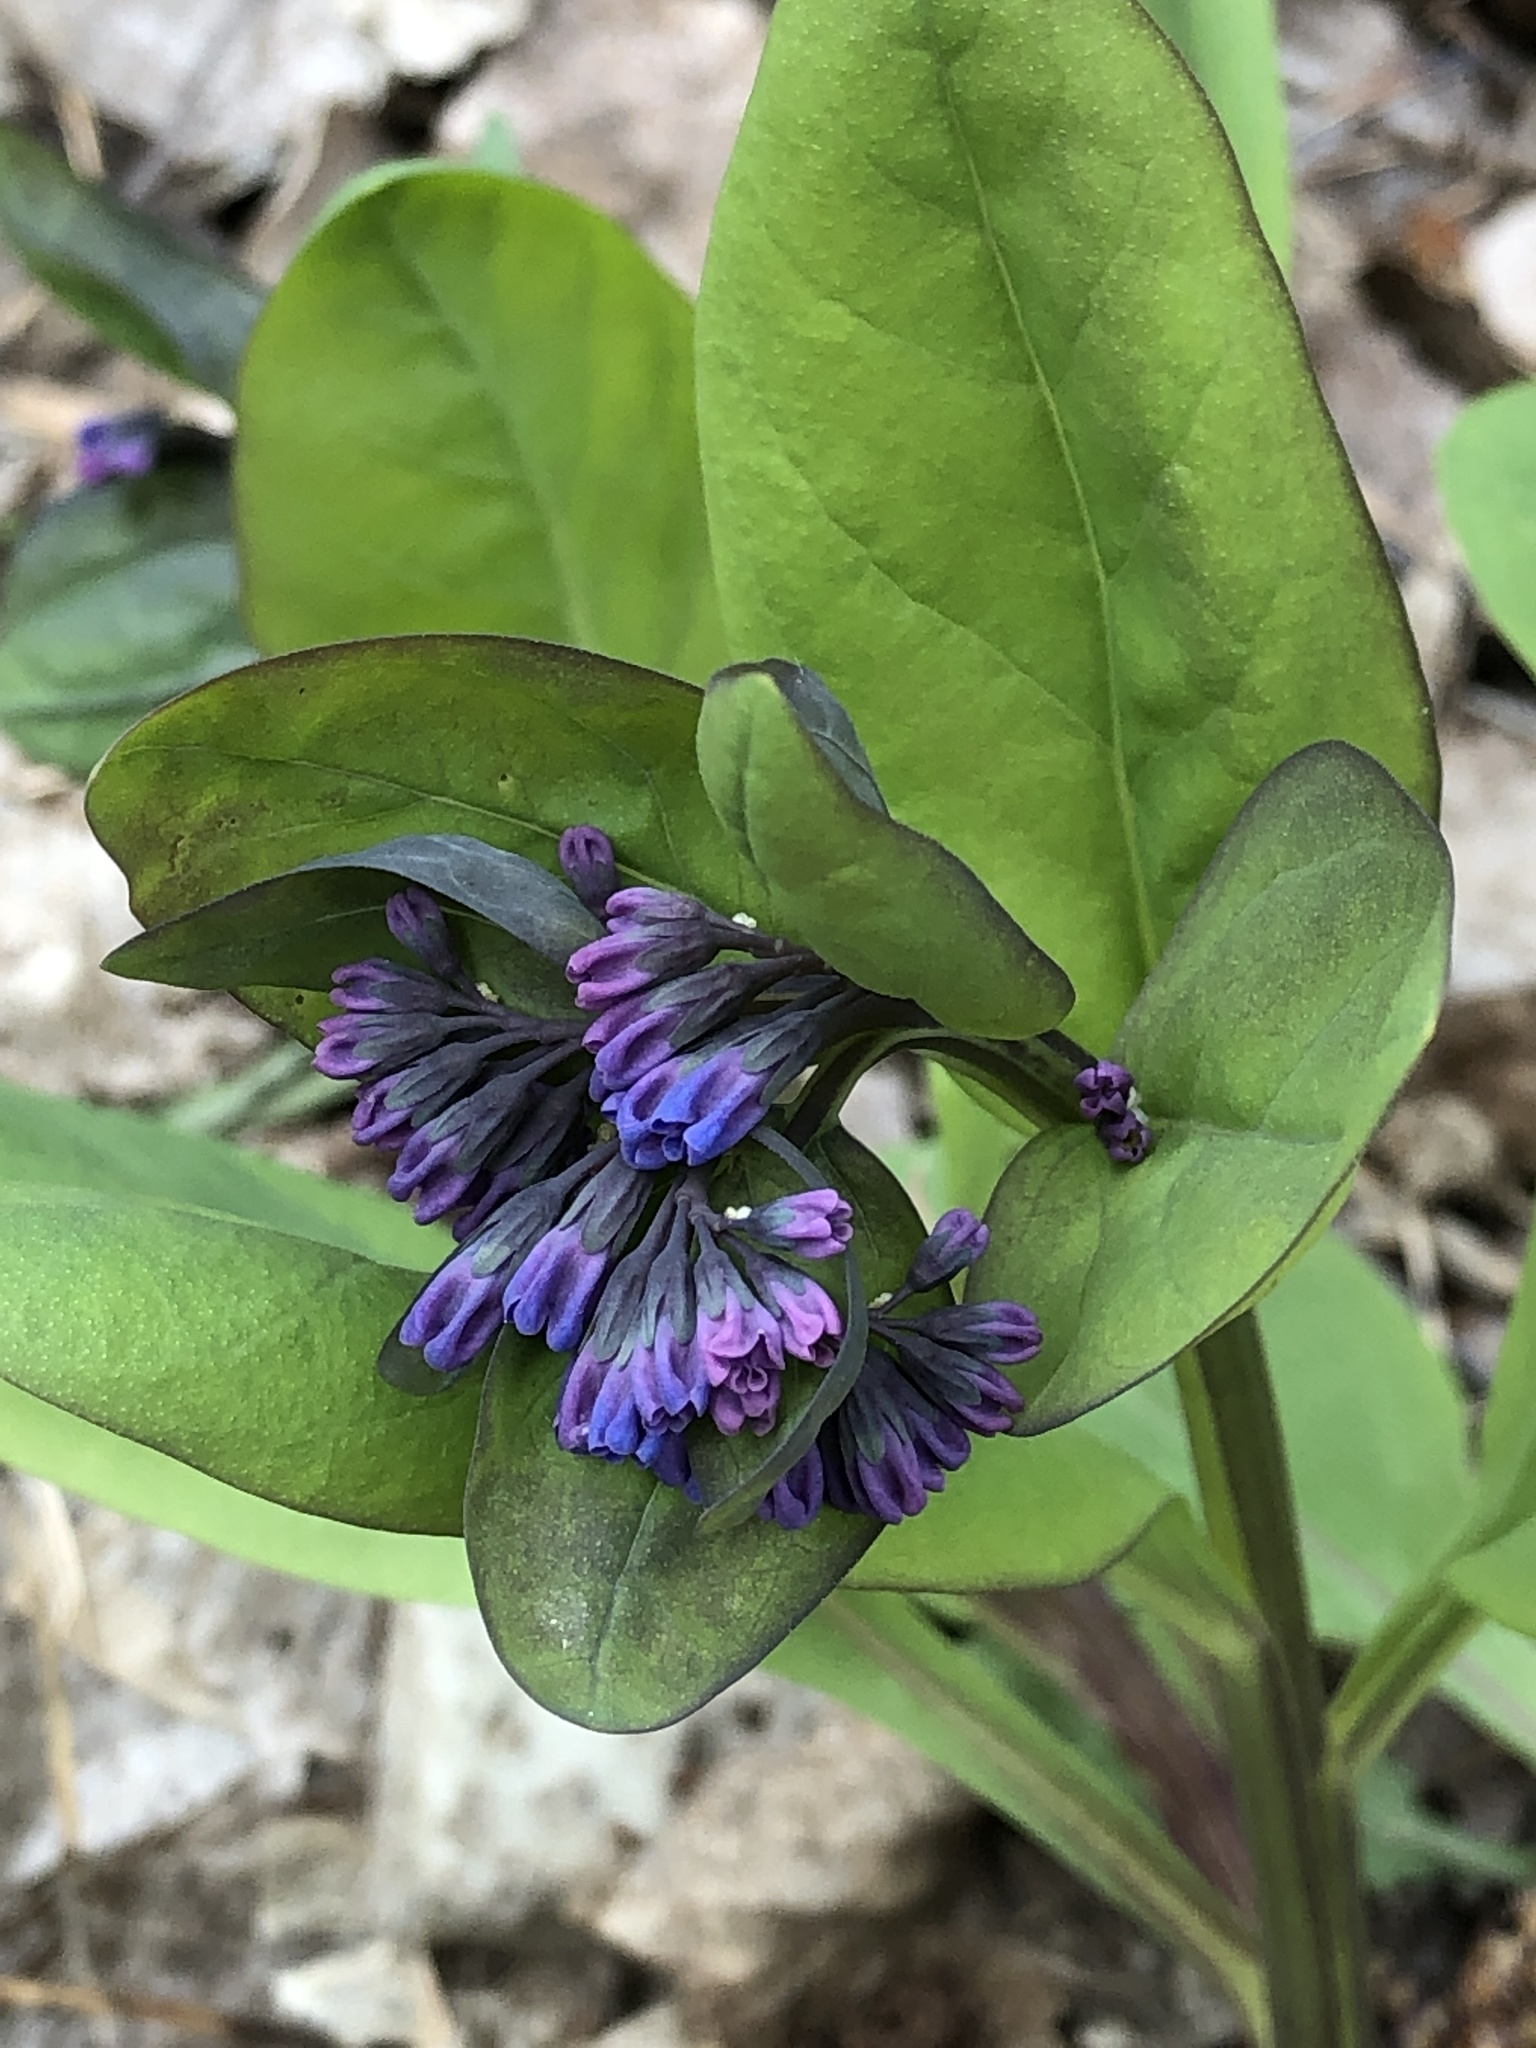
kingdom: Plantae
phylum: Tracheophyta
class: Magnoliopsida
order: Boraginales
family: Boraginaceae
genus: Mertensia
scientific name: Mertensia virginica
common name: Virginia bluebells
